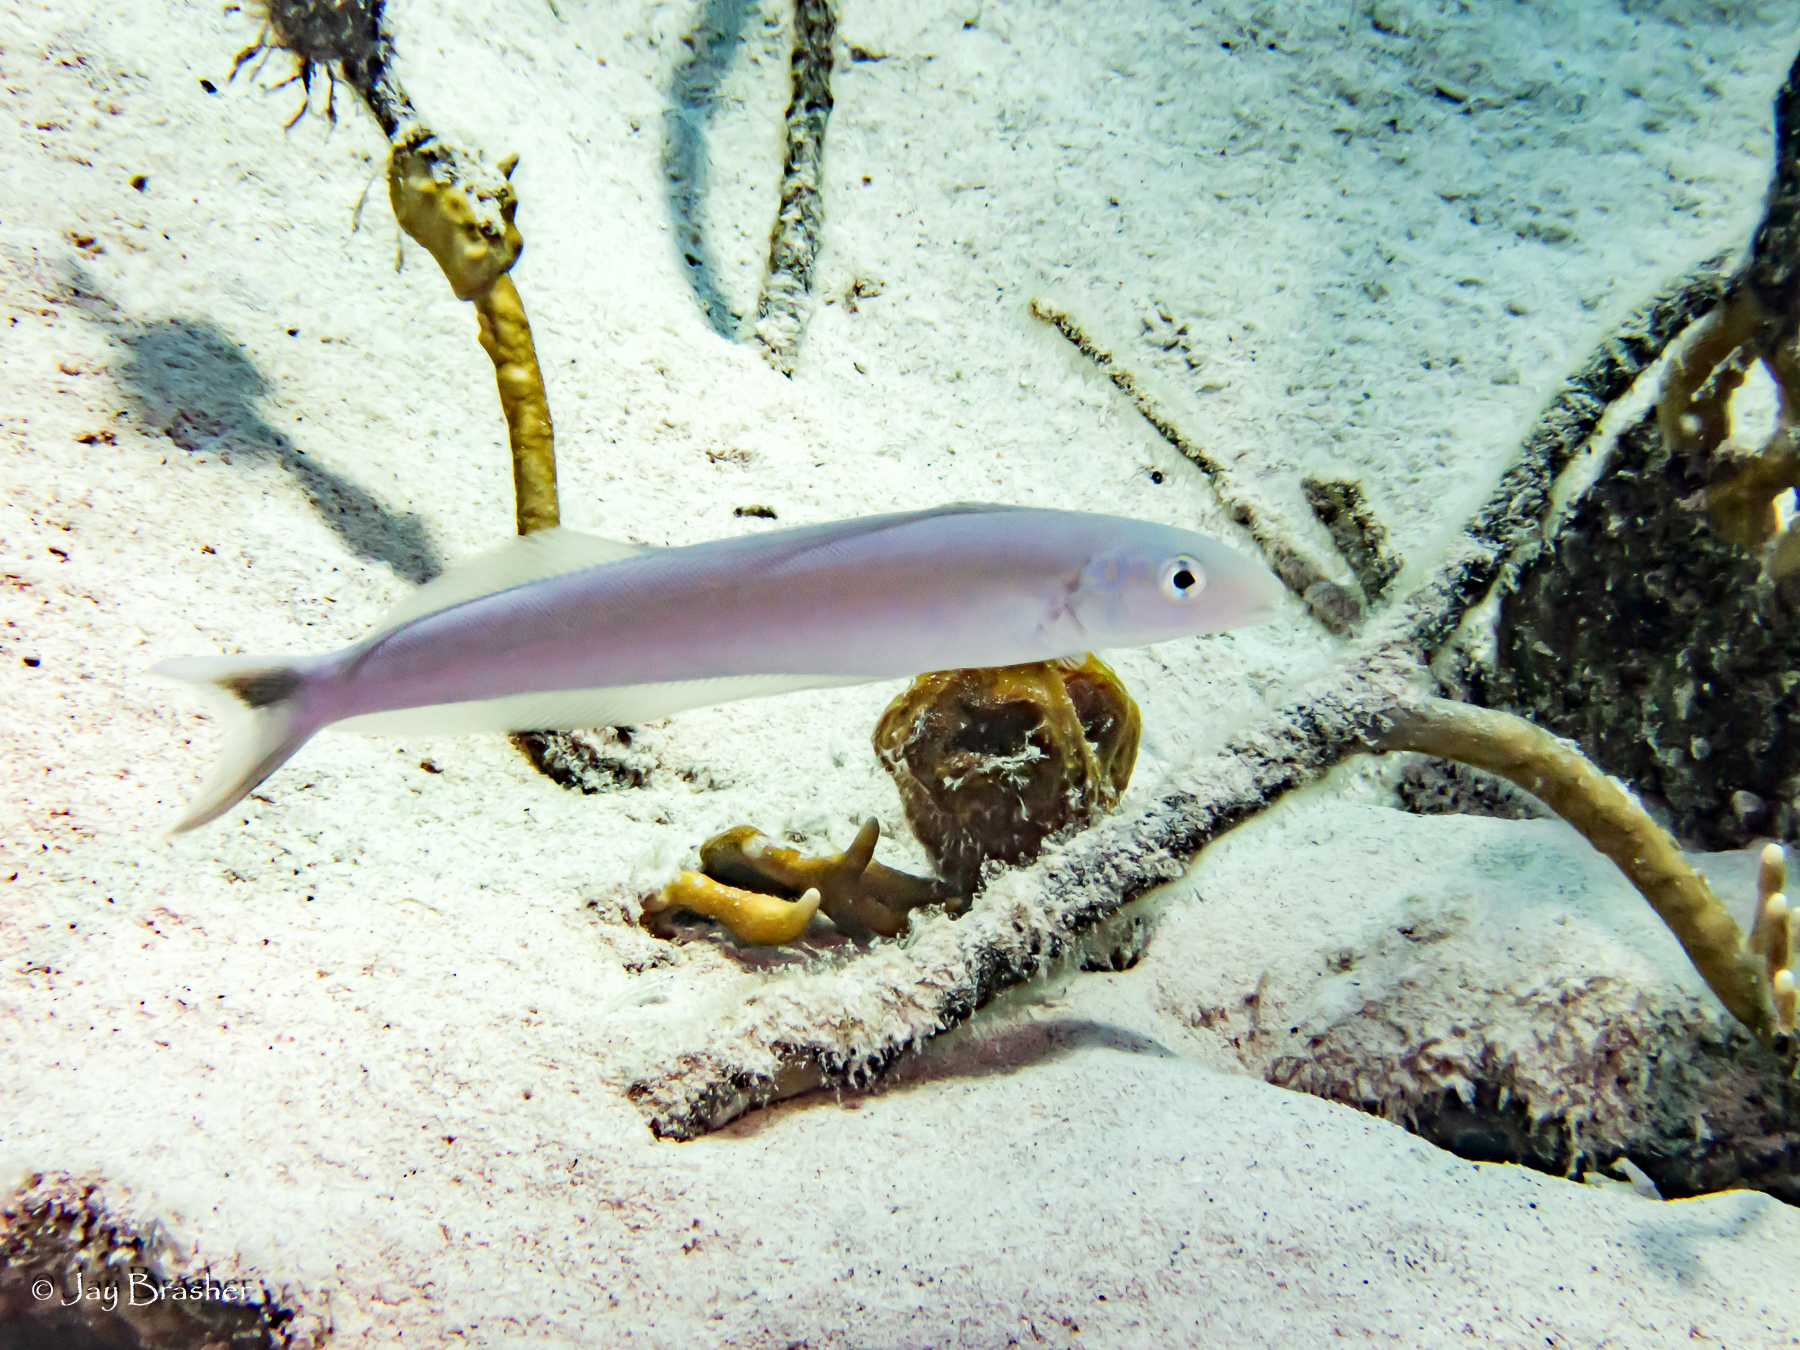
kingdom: Animalia
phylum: Chordata
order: Perciformes
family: Malacanthidae
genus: Malacanthus
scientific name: Malacanthus plumieri
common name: Sand tilefish
